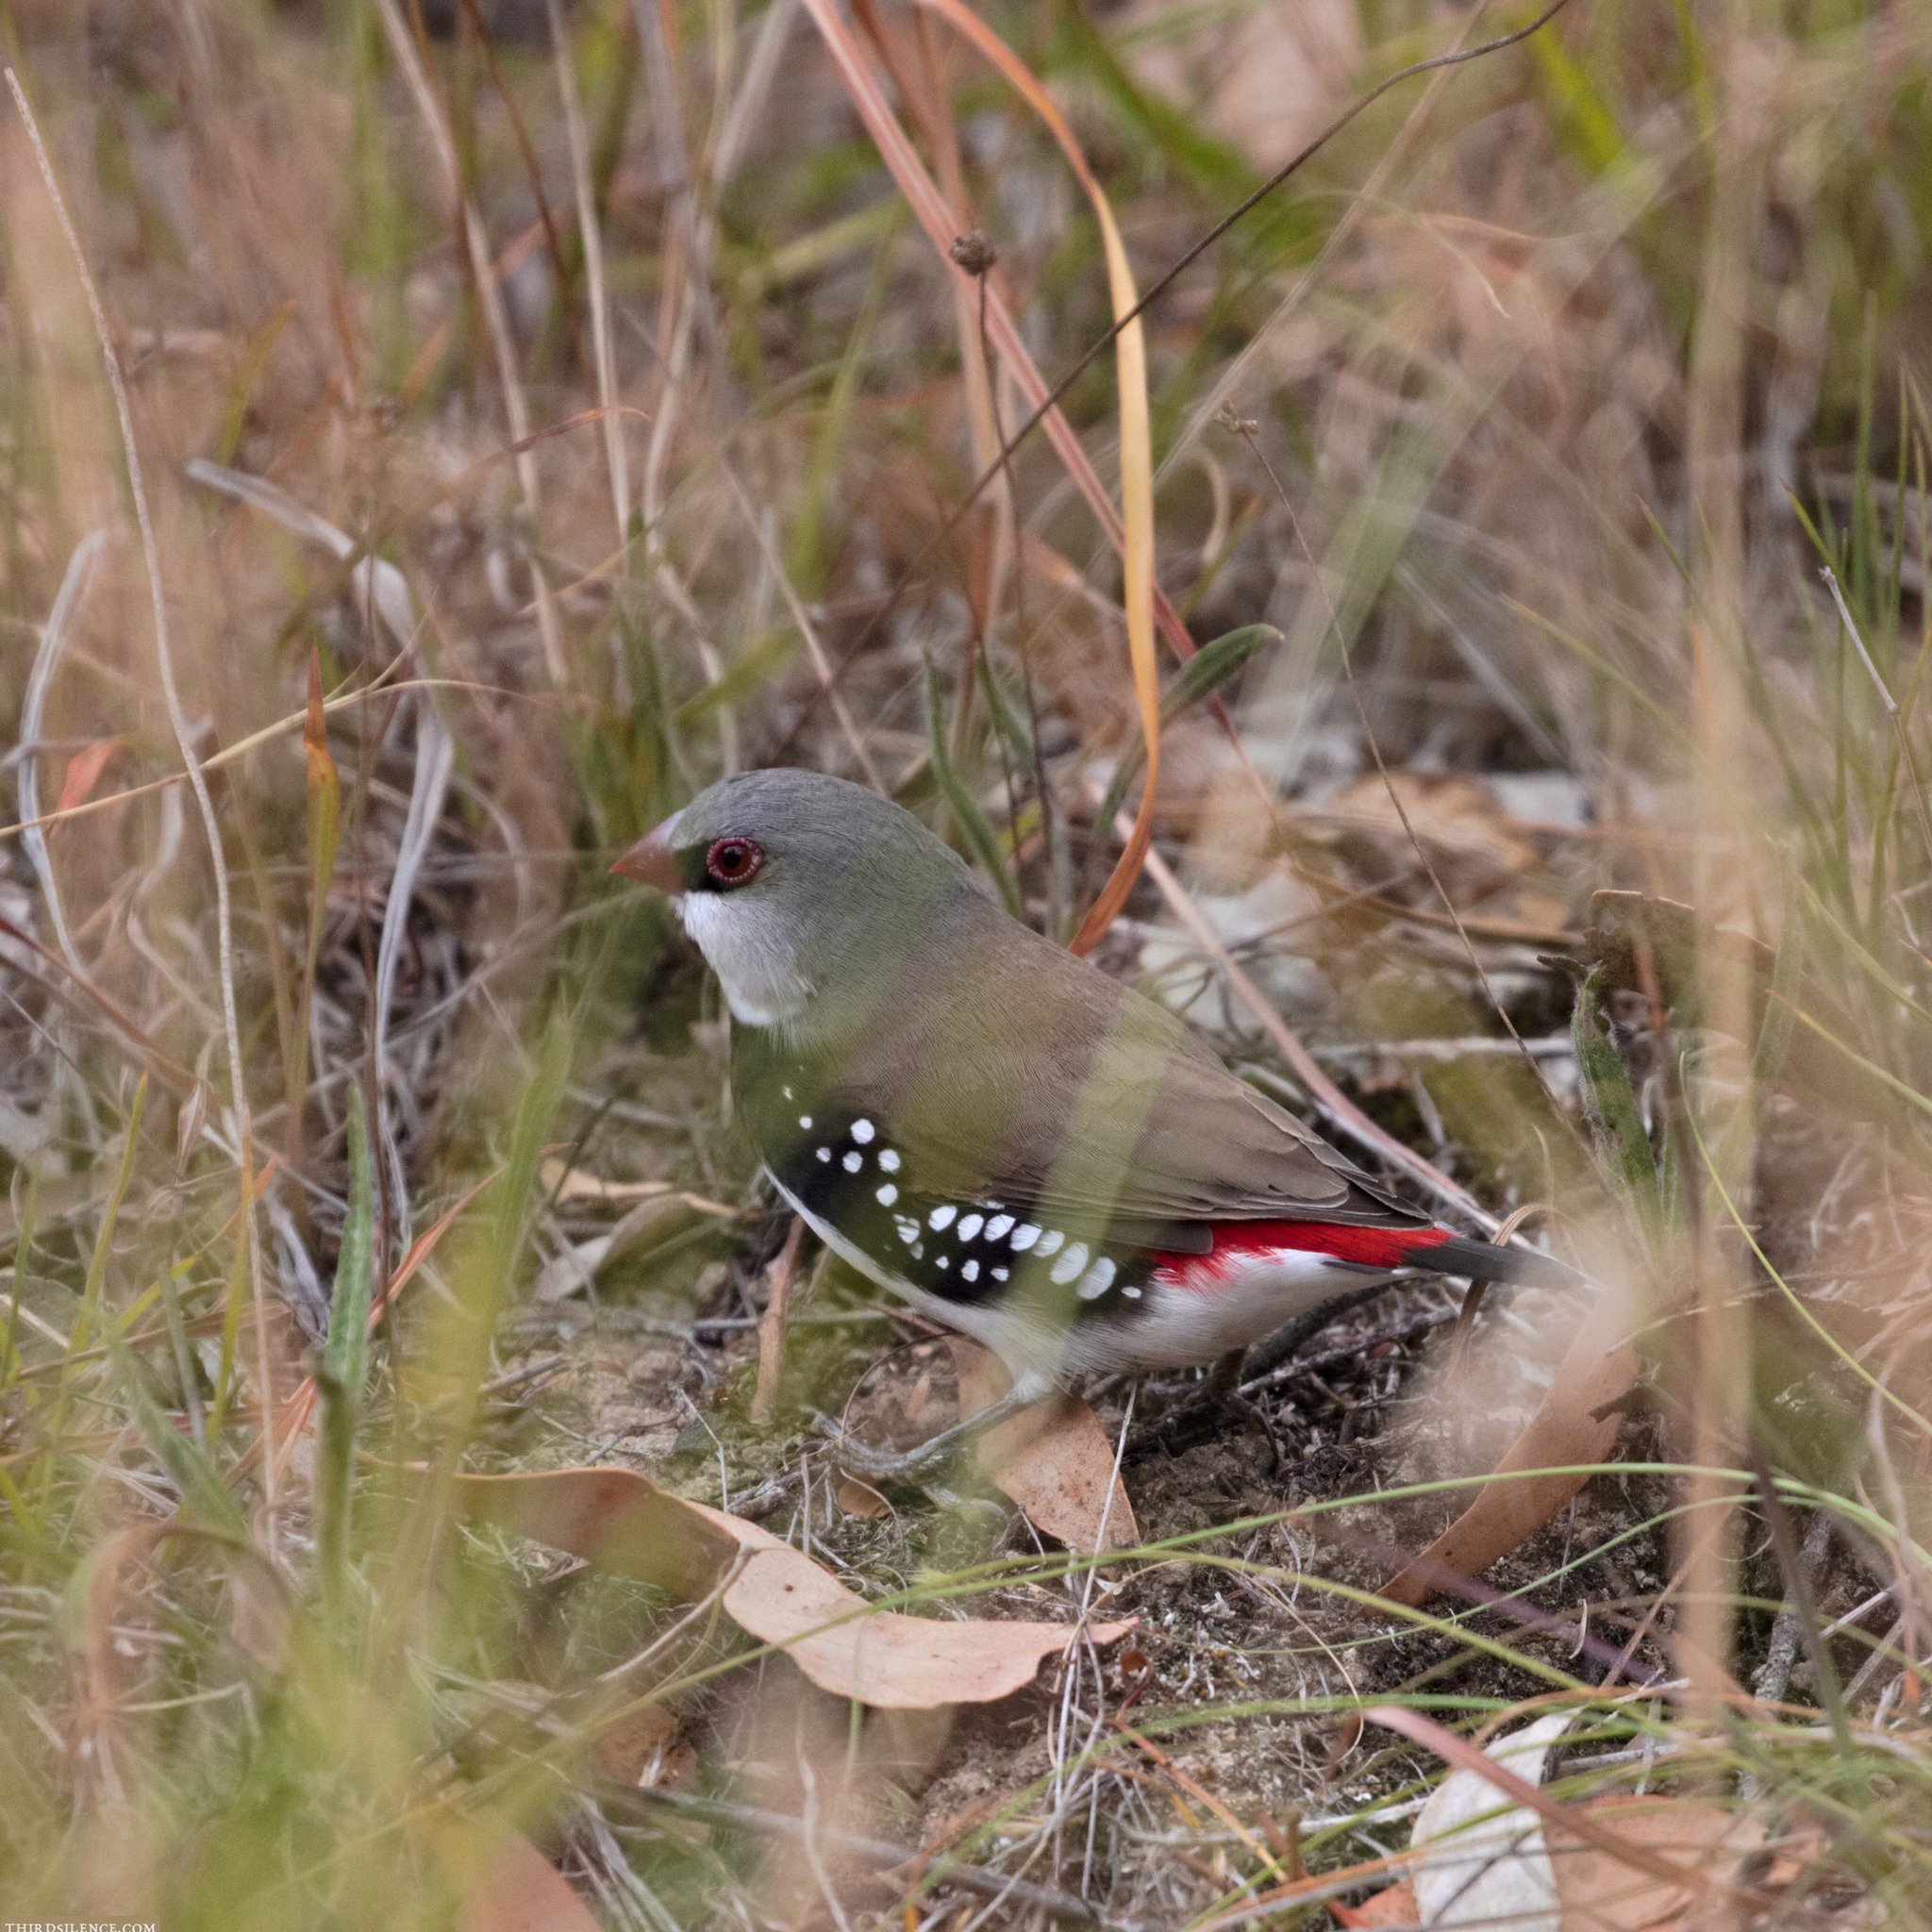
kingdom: Animalia
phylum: Chordata
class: Aves
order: Passeriformes
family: Estrildidae
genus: Stagonopleura
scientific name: Stagonopleura guttata
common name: Diamond firetail
